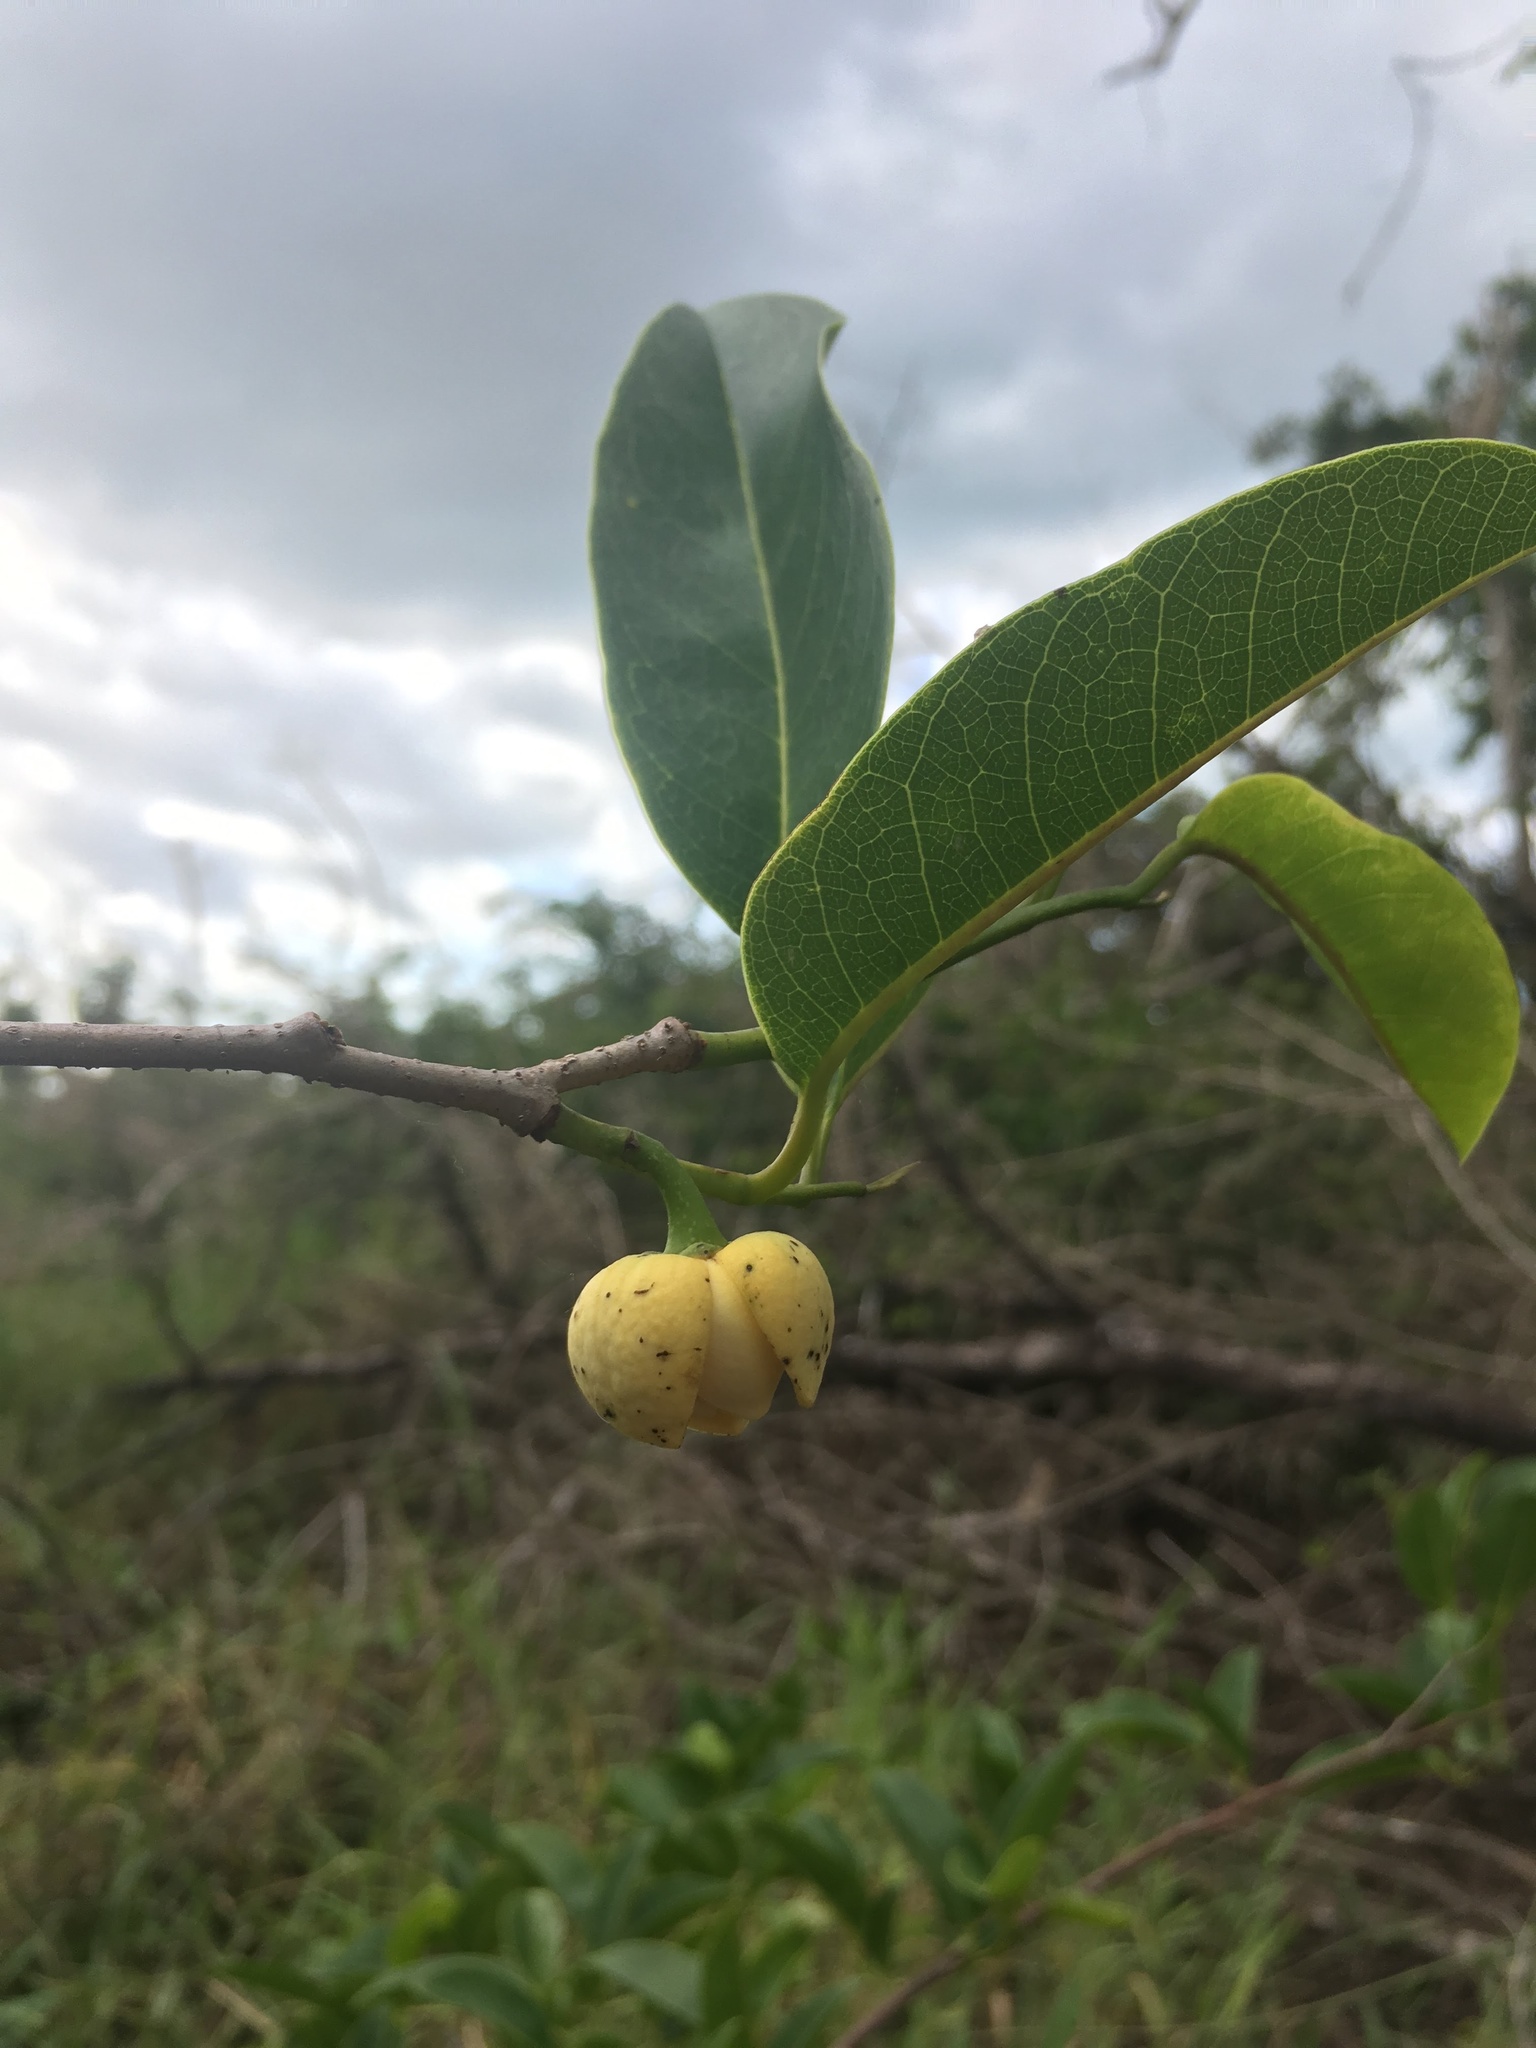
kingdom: Plantae
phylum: Tracheophyta
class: Magnoliopsida
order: Magnoliales
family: Annonaceae
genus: Annona
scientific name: Annona glabra
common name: Monkey apple
